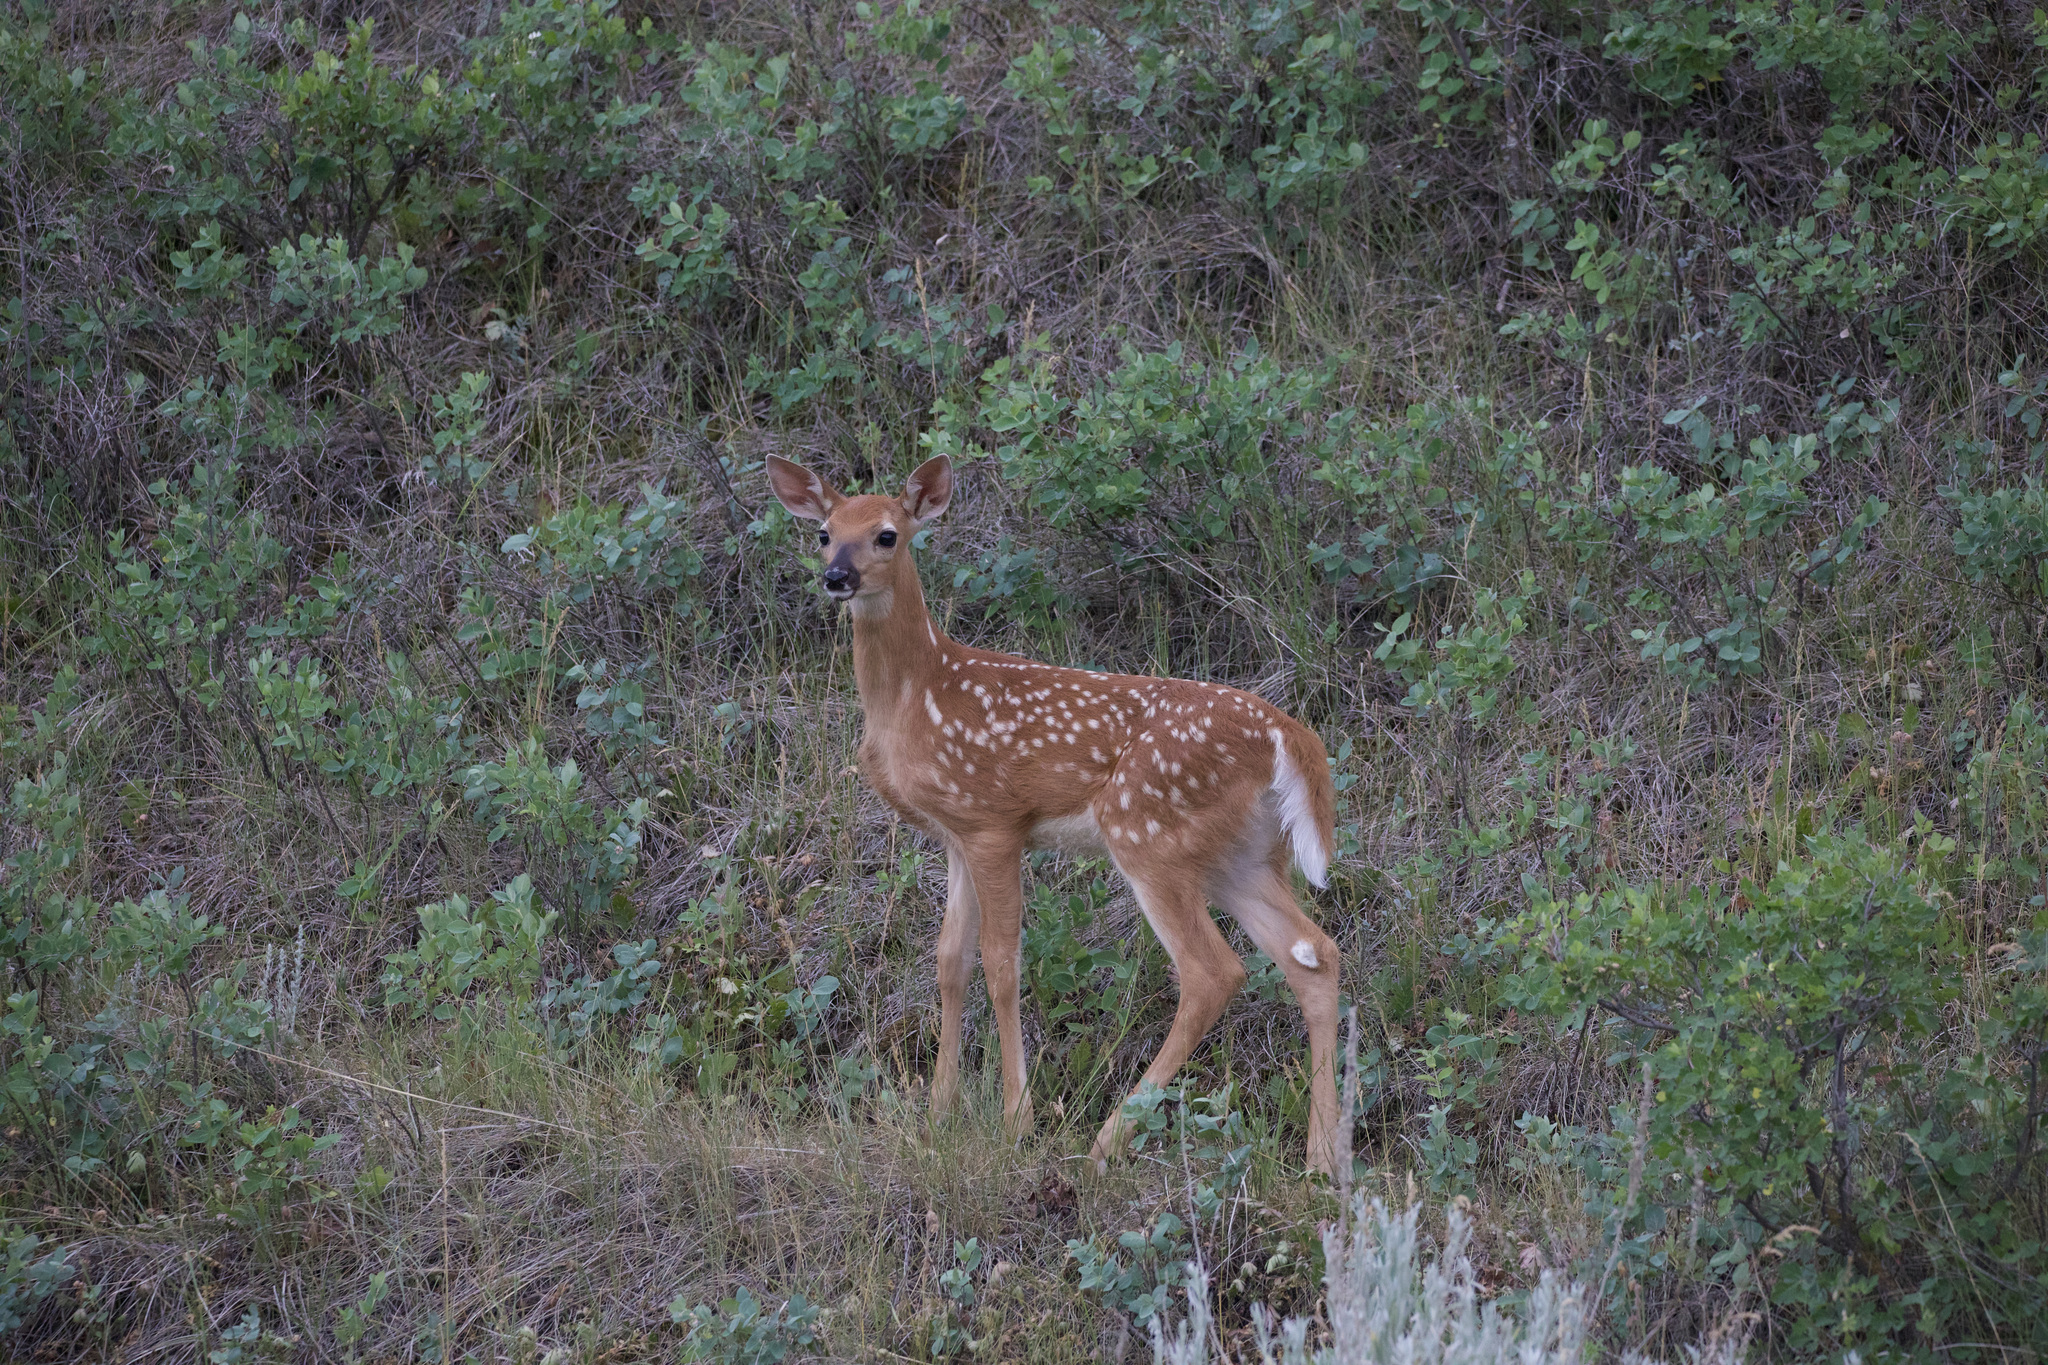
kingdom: Animalia
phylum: Chordata
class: Mammalia
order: Artiodactyla
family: Cervidae
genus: Odocoileus
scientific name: Odocoileus virginianus
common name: White-tailed deer
